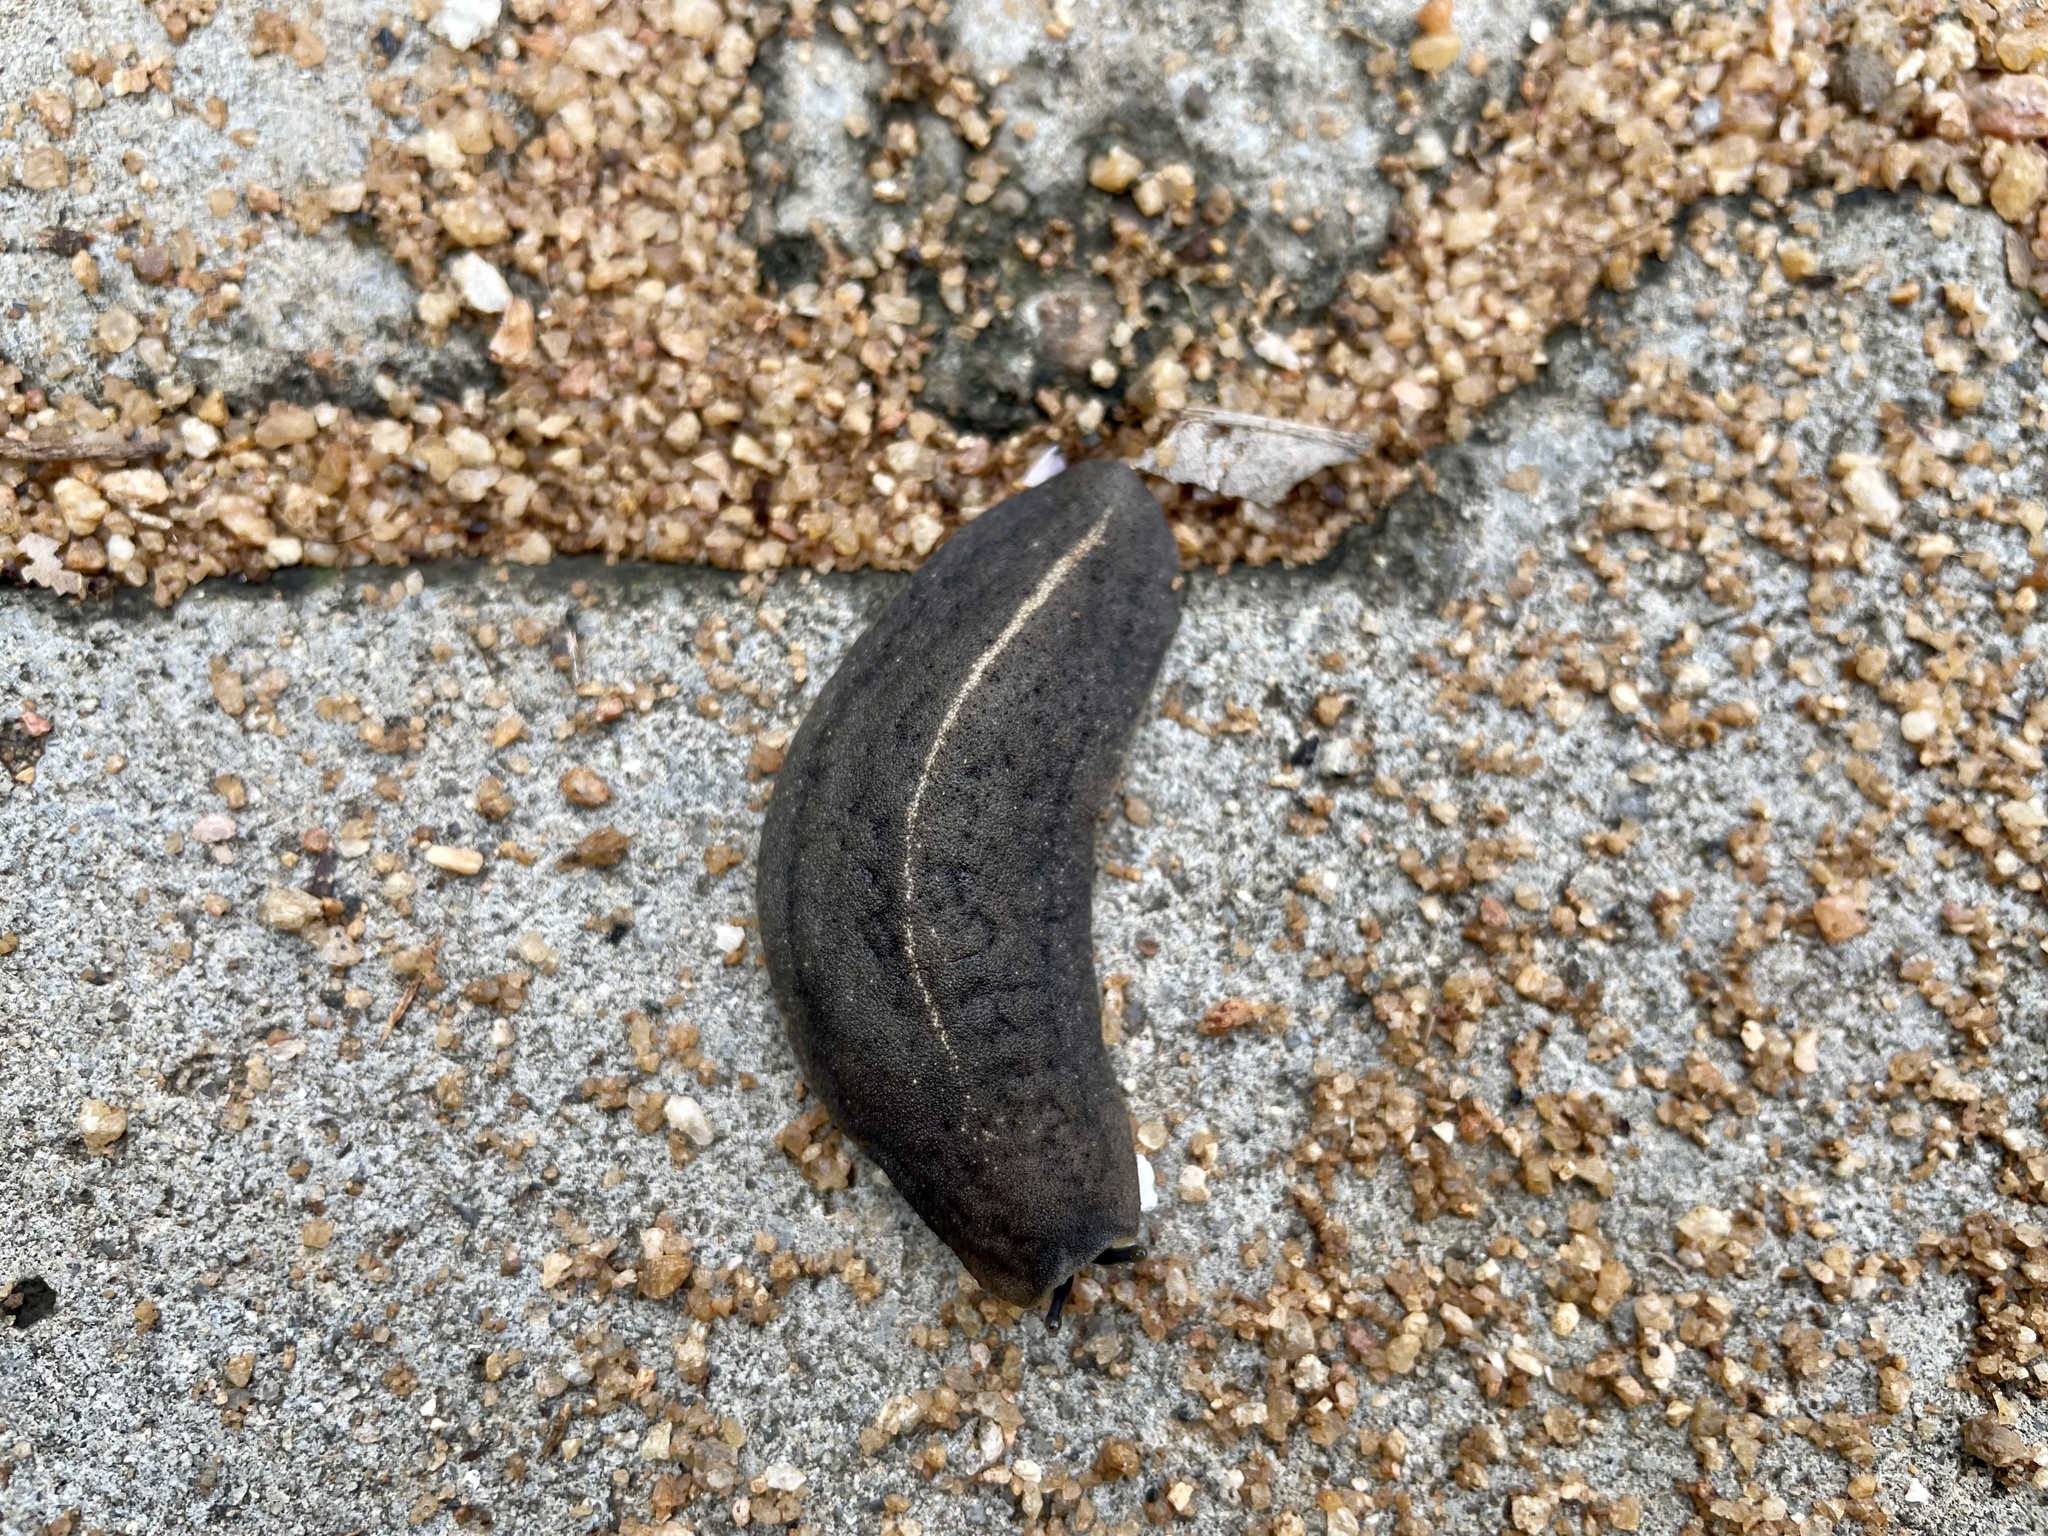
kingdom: Animalia
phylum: Mollusca
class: Gastropoda
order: Systellommatophora
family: Veronicellidae
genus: Laevicaulis
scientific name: Laevicaulis alte
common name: Tropical leatherleaf
